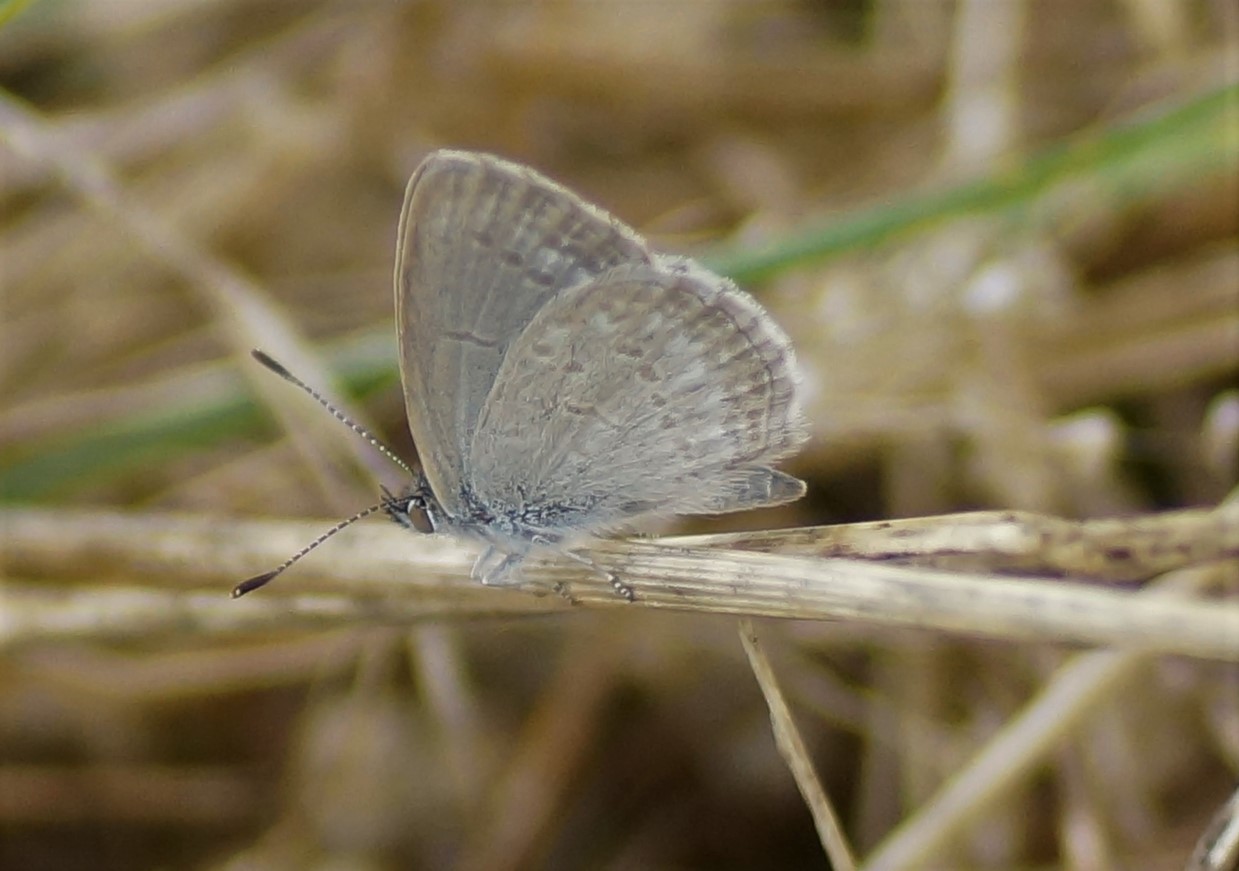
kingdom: Animalia
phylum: Arthropoda
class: Insecta
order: Lepidoptera
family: Lycaenidae
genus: Zizina
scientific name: Zizina labradus
